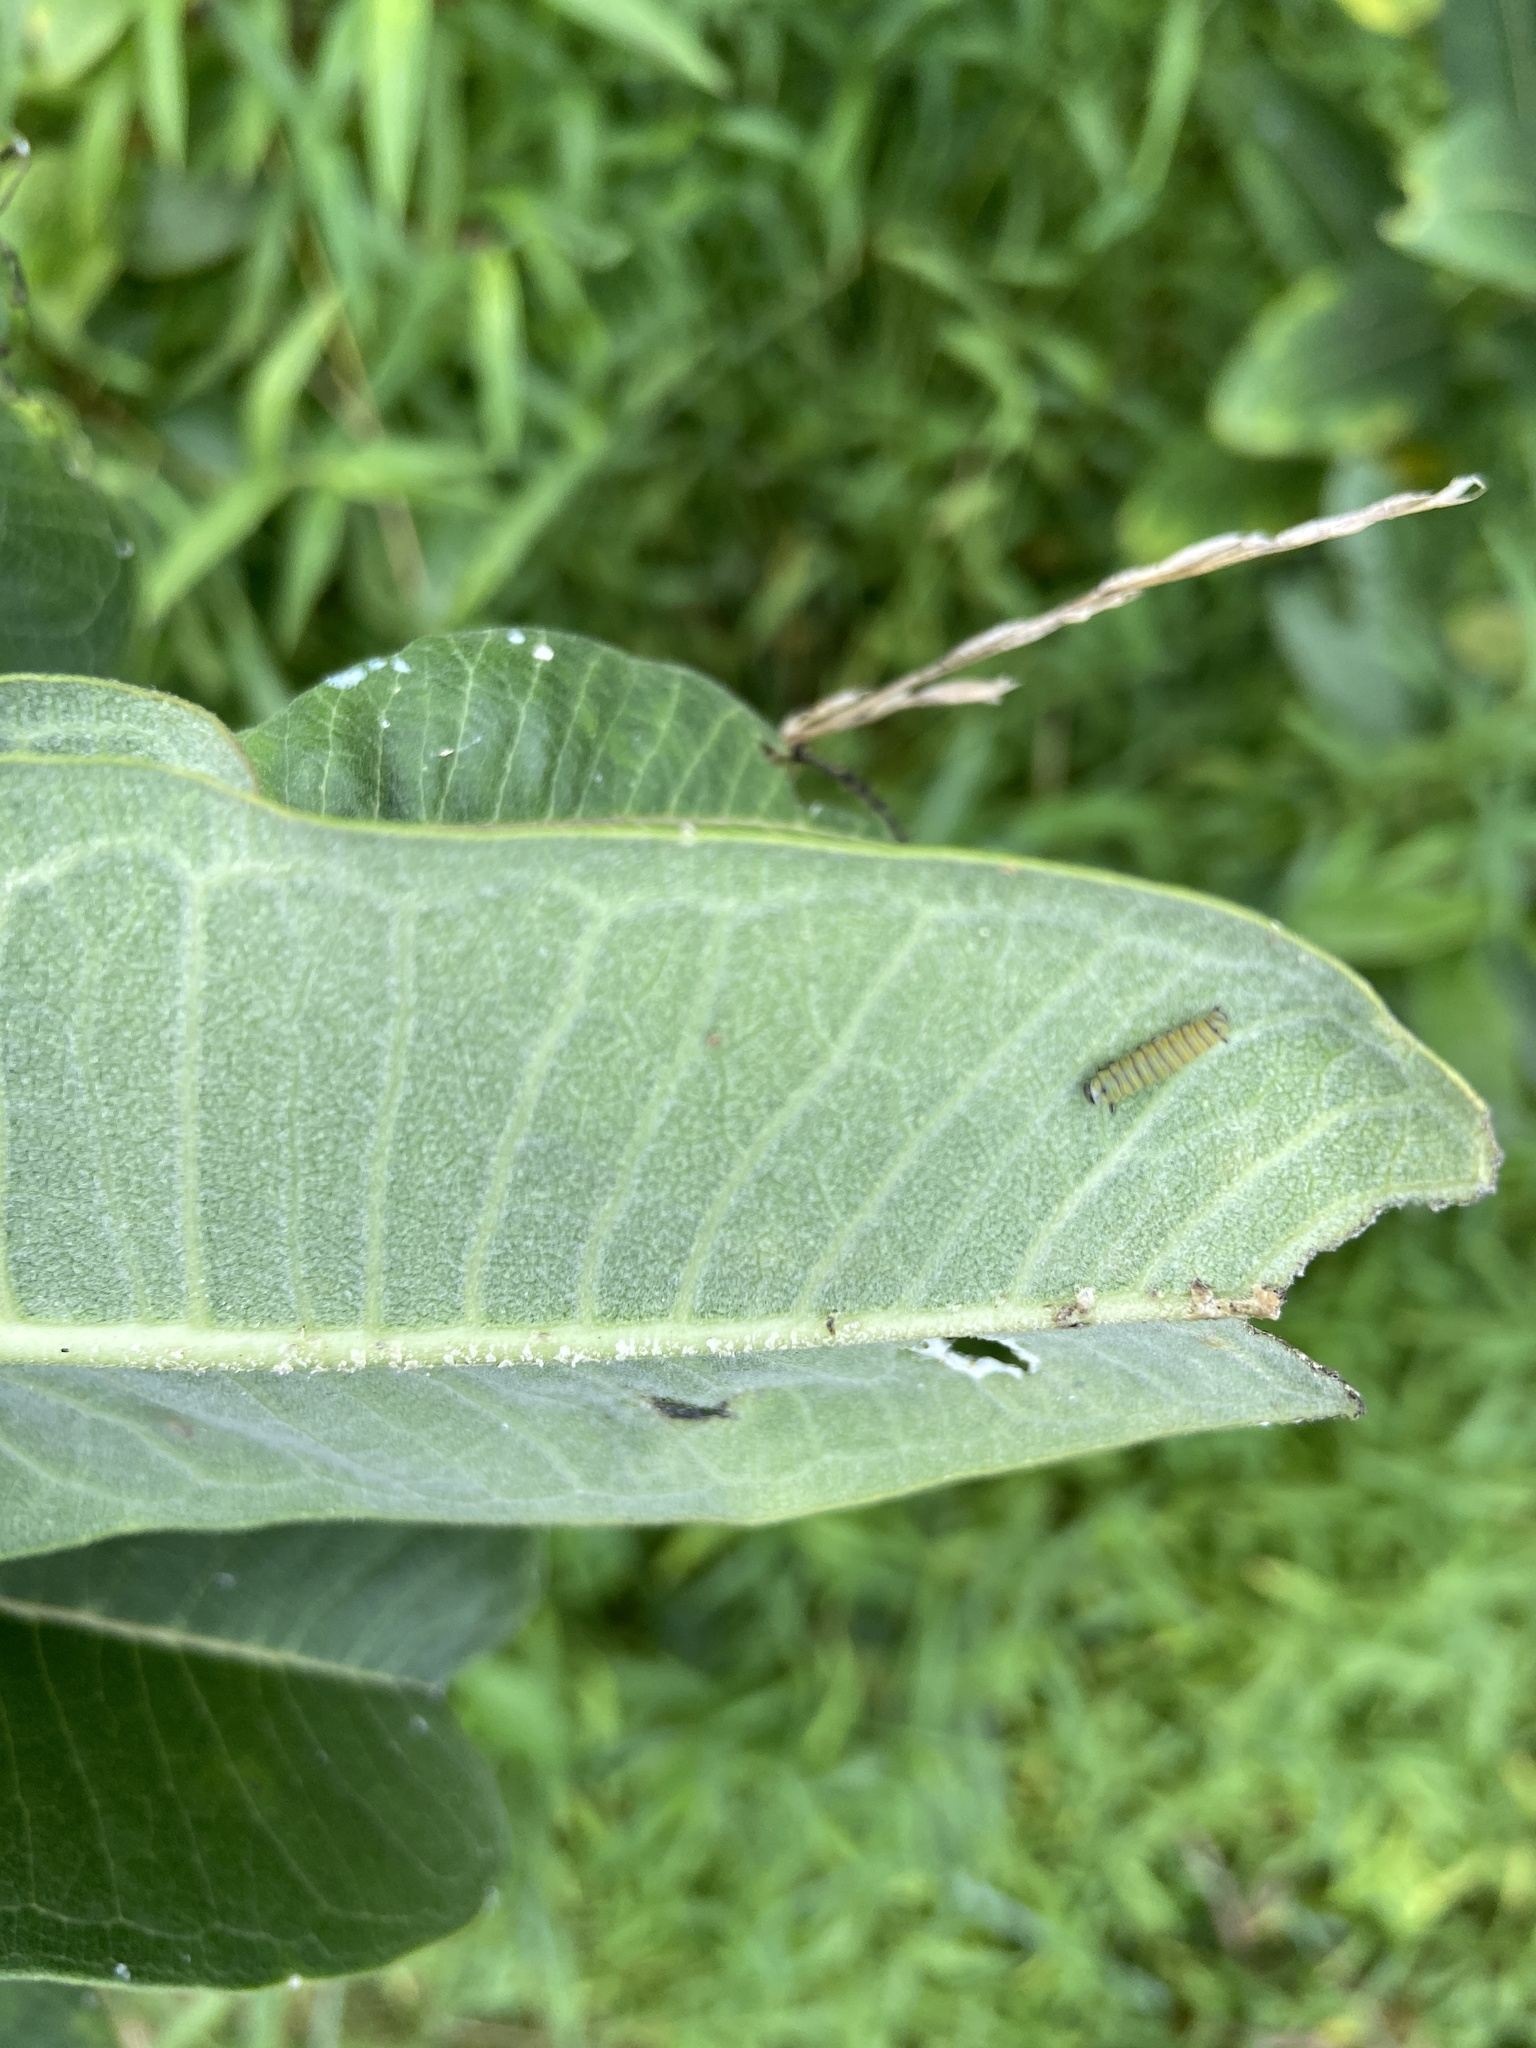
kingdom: Animalia
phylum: Arthropoda
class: Insecta
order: Lepidoptera
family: Nymphalidae
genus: Danaus
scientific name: Danaus plexippus
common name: Monarch
